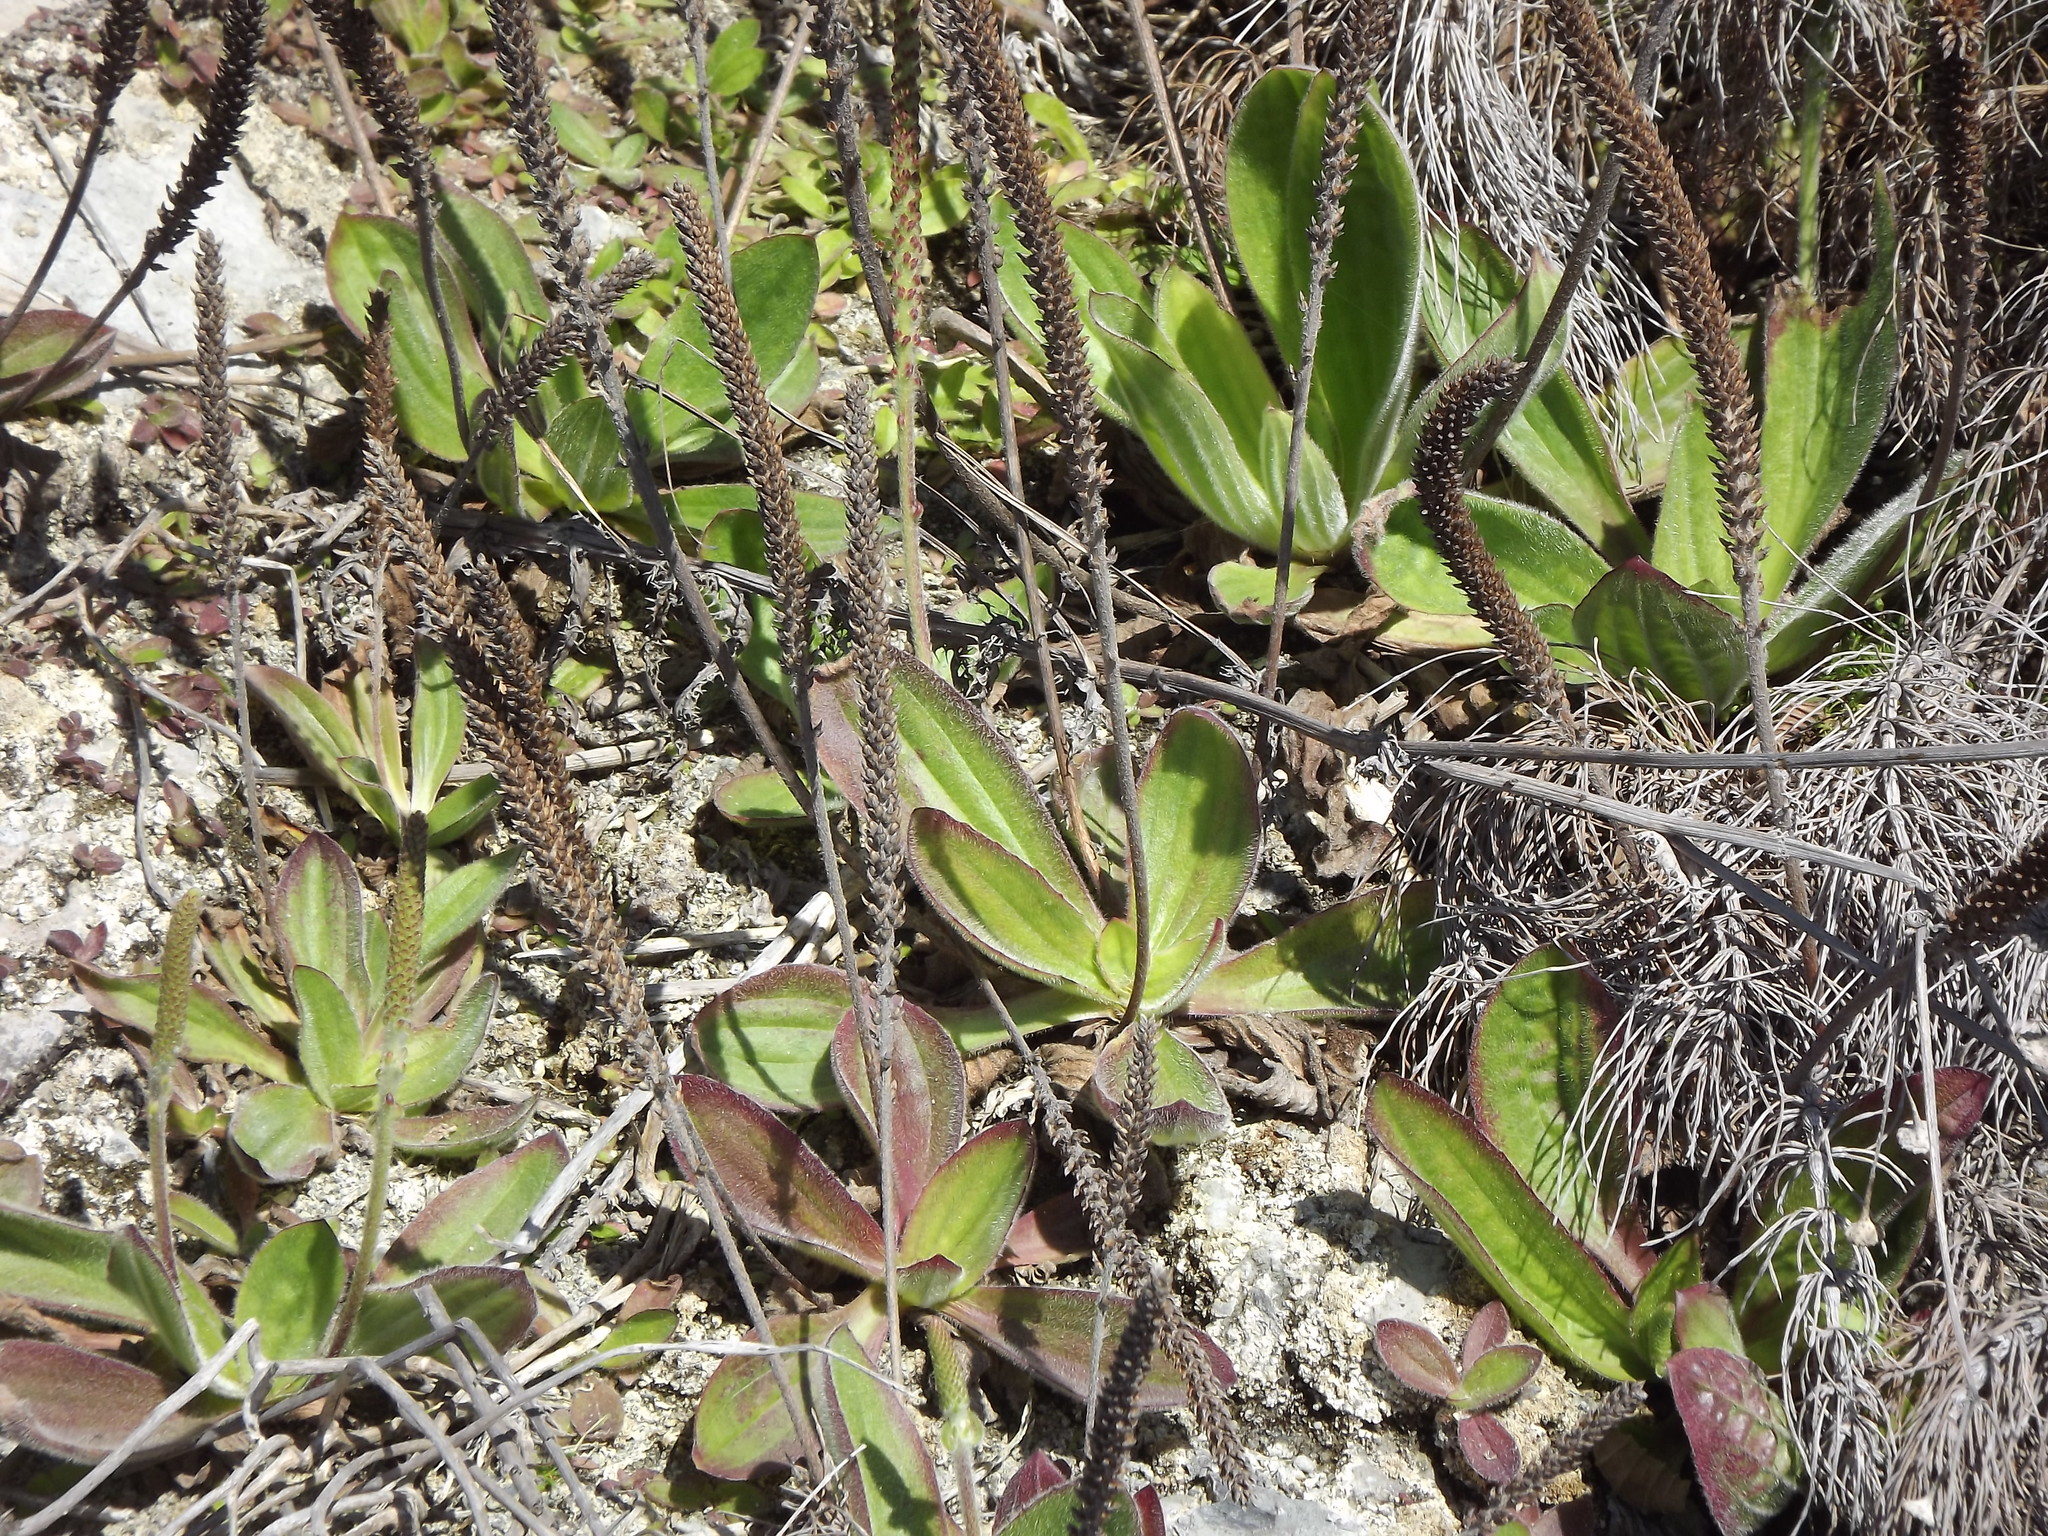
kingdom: Plantae
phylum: Tracheophyta
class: Magnoliopsida
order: Lamiales
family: Plantaginaceae
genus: Plantago
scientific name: Plantago subnuda
